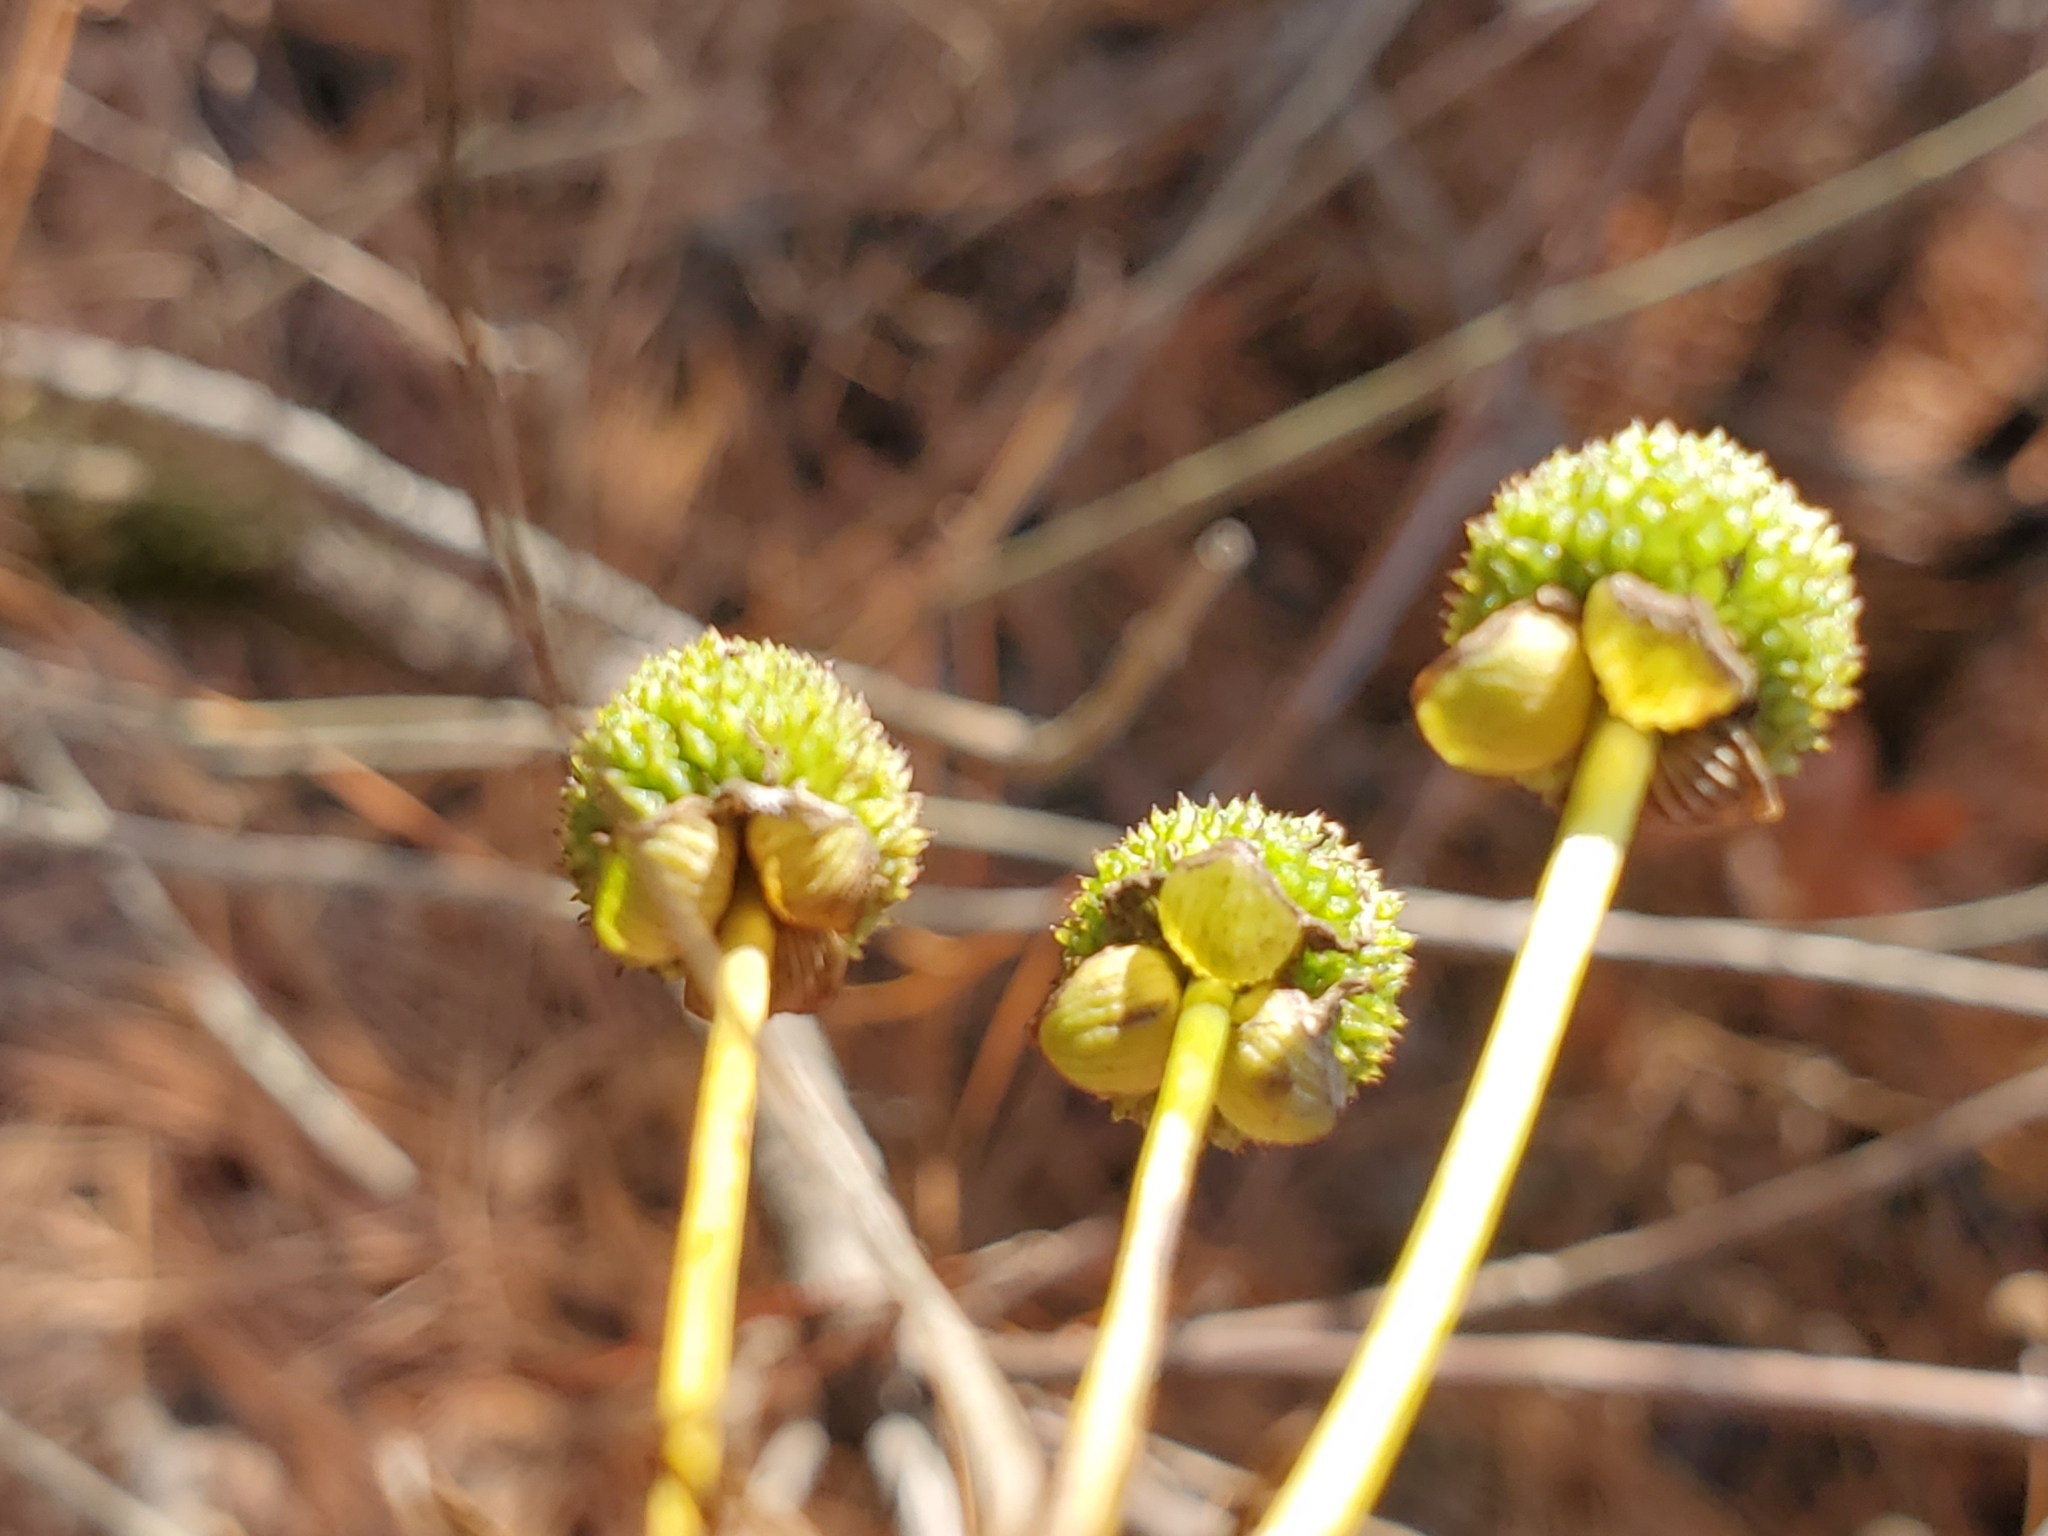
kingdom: Plantae
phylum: Tracheophyta
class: Liliopsida
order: Alismatales
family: Alismataceae
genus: Aquarius
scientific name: Aquarius cordifolius
